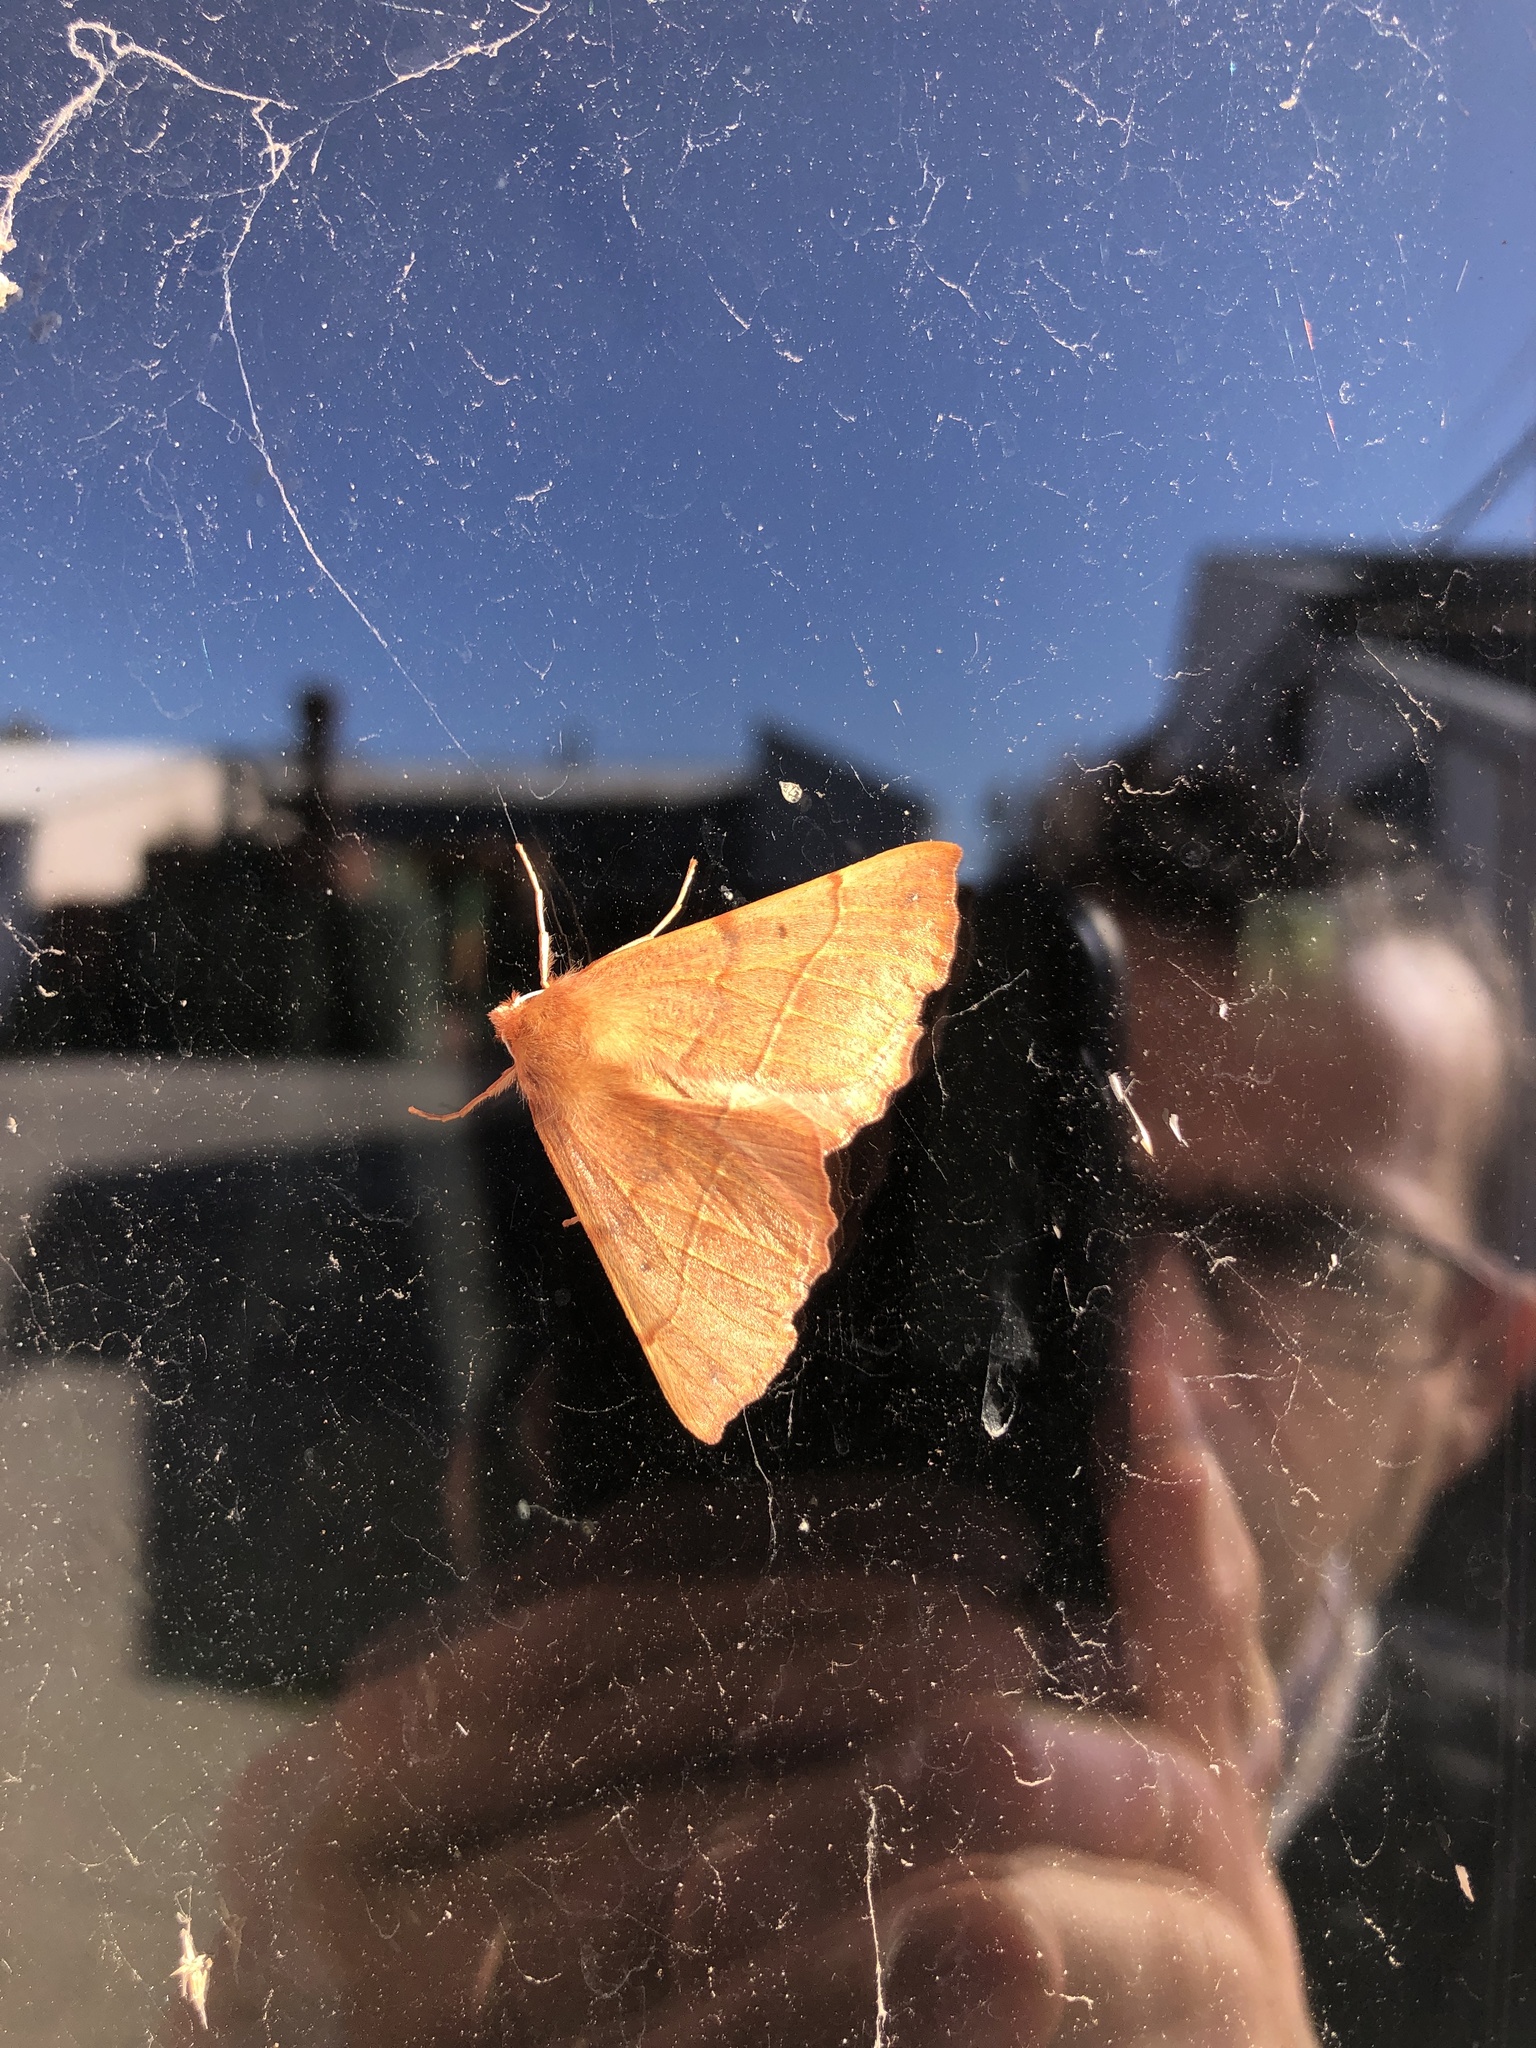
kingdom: Animalia
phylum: Arthropoda
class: Insecta
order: Lepidoptera
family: Geometridae
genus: Colotois
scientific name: Colotois pennaria
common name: Feathered thorn
